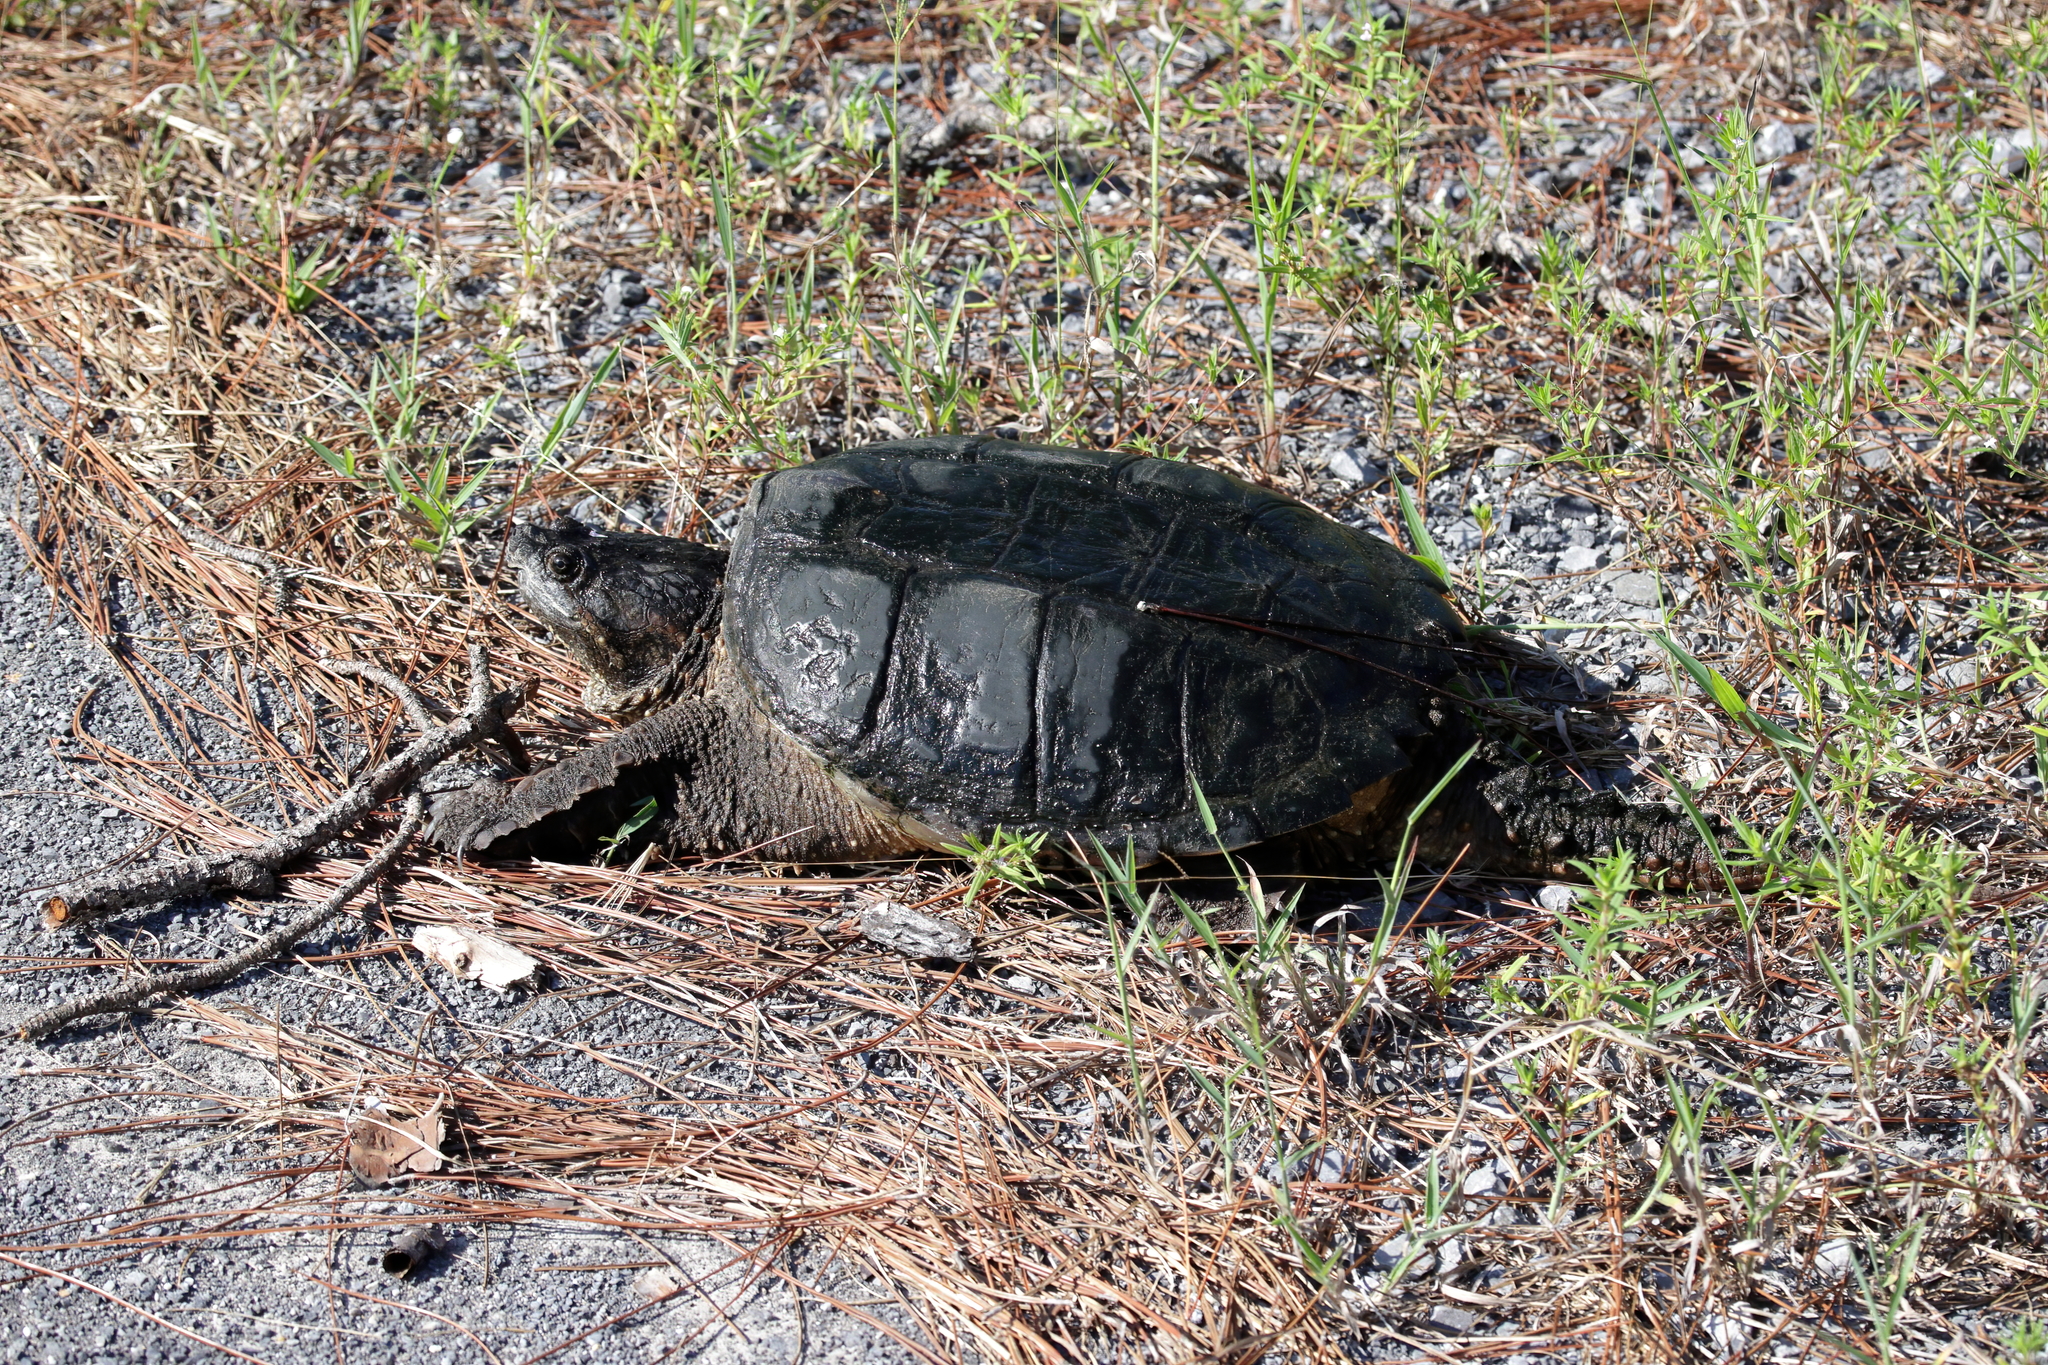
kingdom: Animalia
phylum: Chordata
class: Testudines
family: Chelydridae
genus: Chelydra
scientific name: Chelydra serpentina
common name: Common snapping turtle
